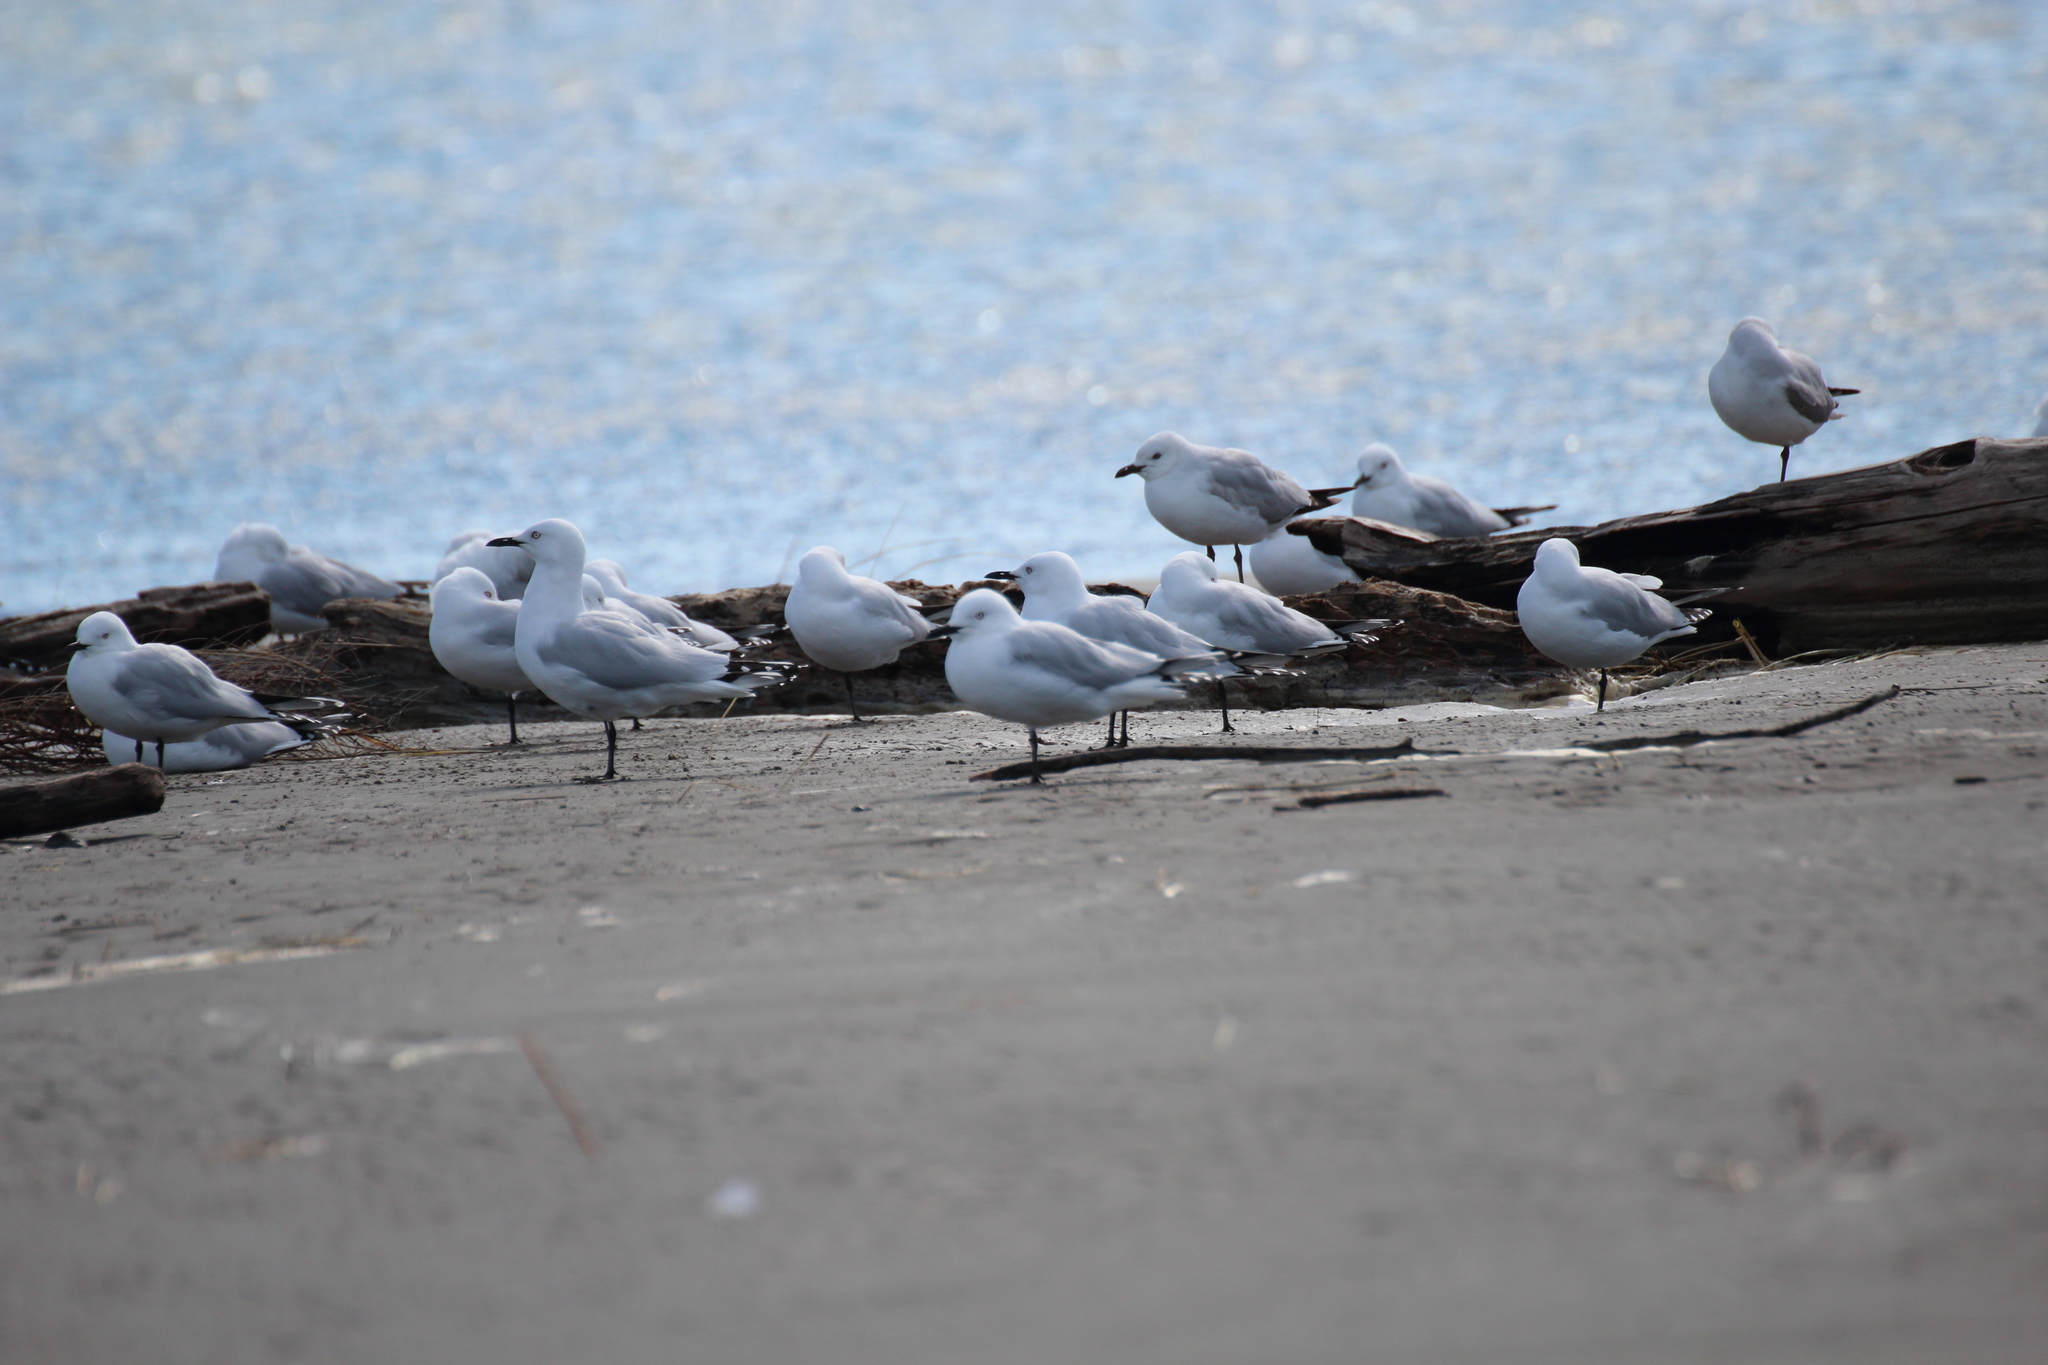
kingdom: Animalia
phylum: Chordata
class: Aves
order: Charadriiformes
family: Laridae
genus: Chroicocephalus
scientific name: Chroicocephalus bulleri
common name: Black-billed gull
